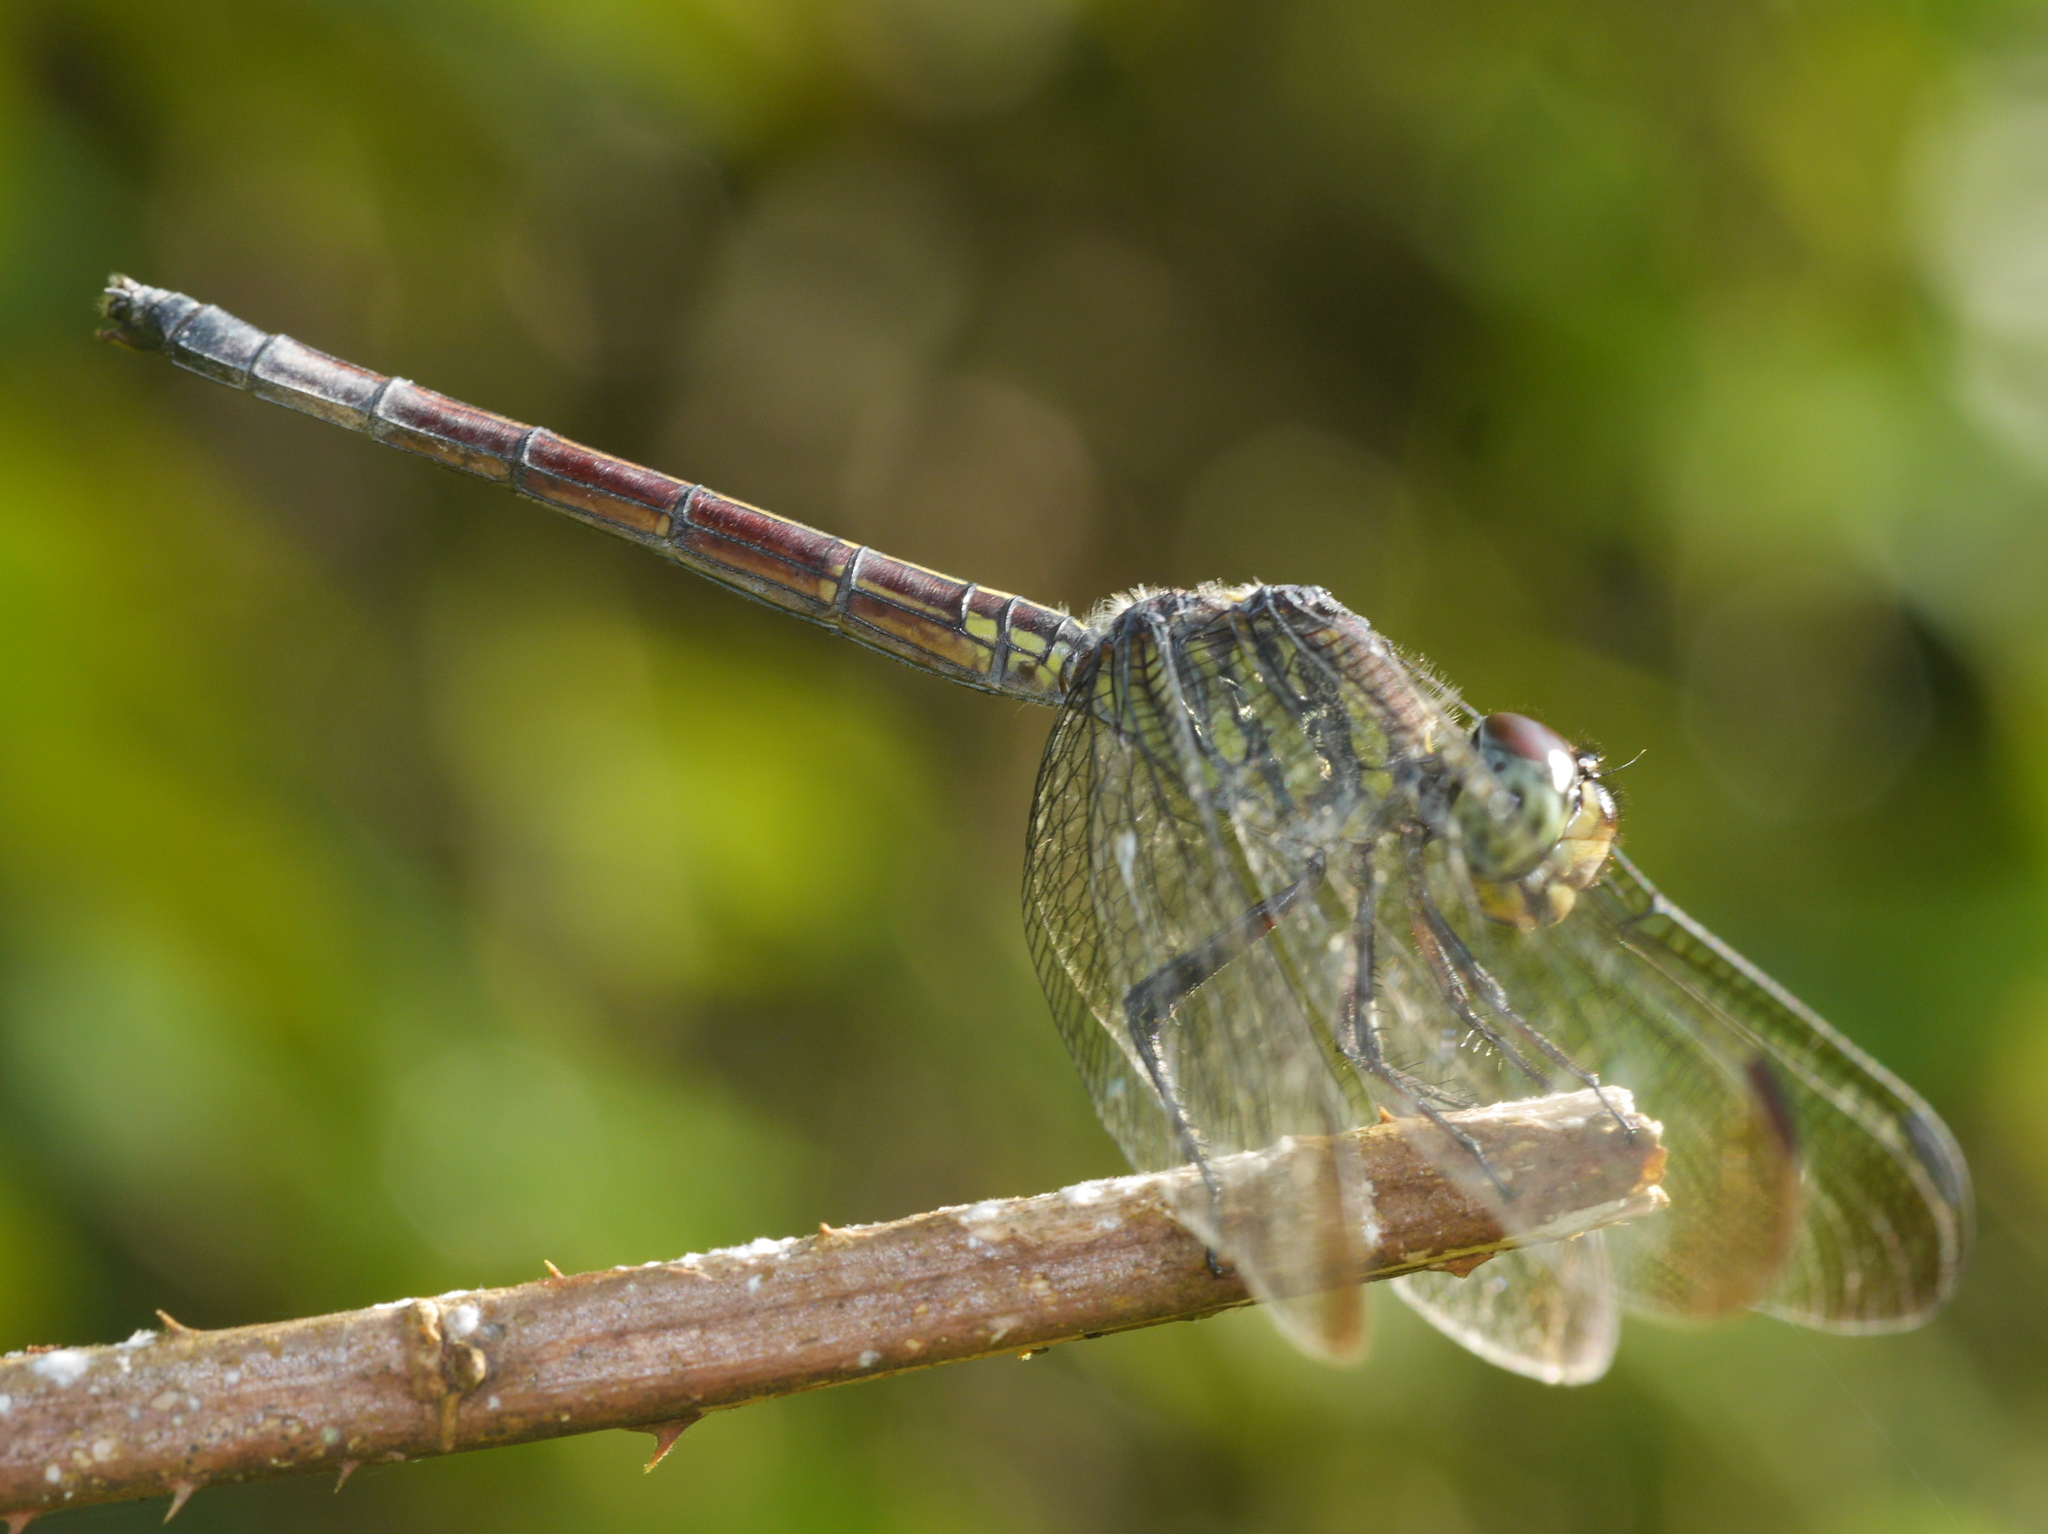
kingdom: Animalia
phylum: Arthropoda
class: Insecta
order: Odonata
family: Libellulidae
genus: Lathrecista
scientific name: Lathrecista asiatica
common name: Scarlet grenadier
